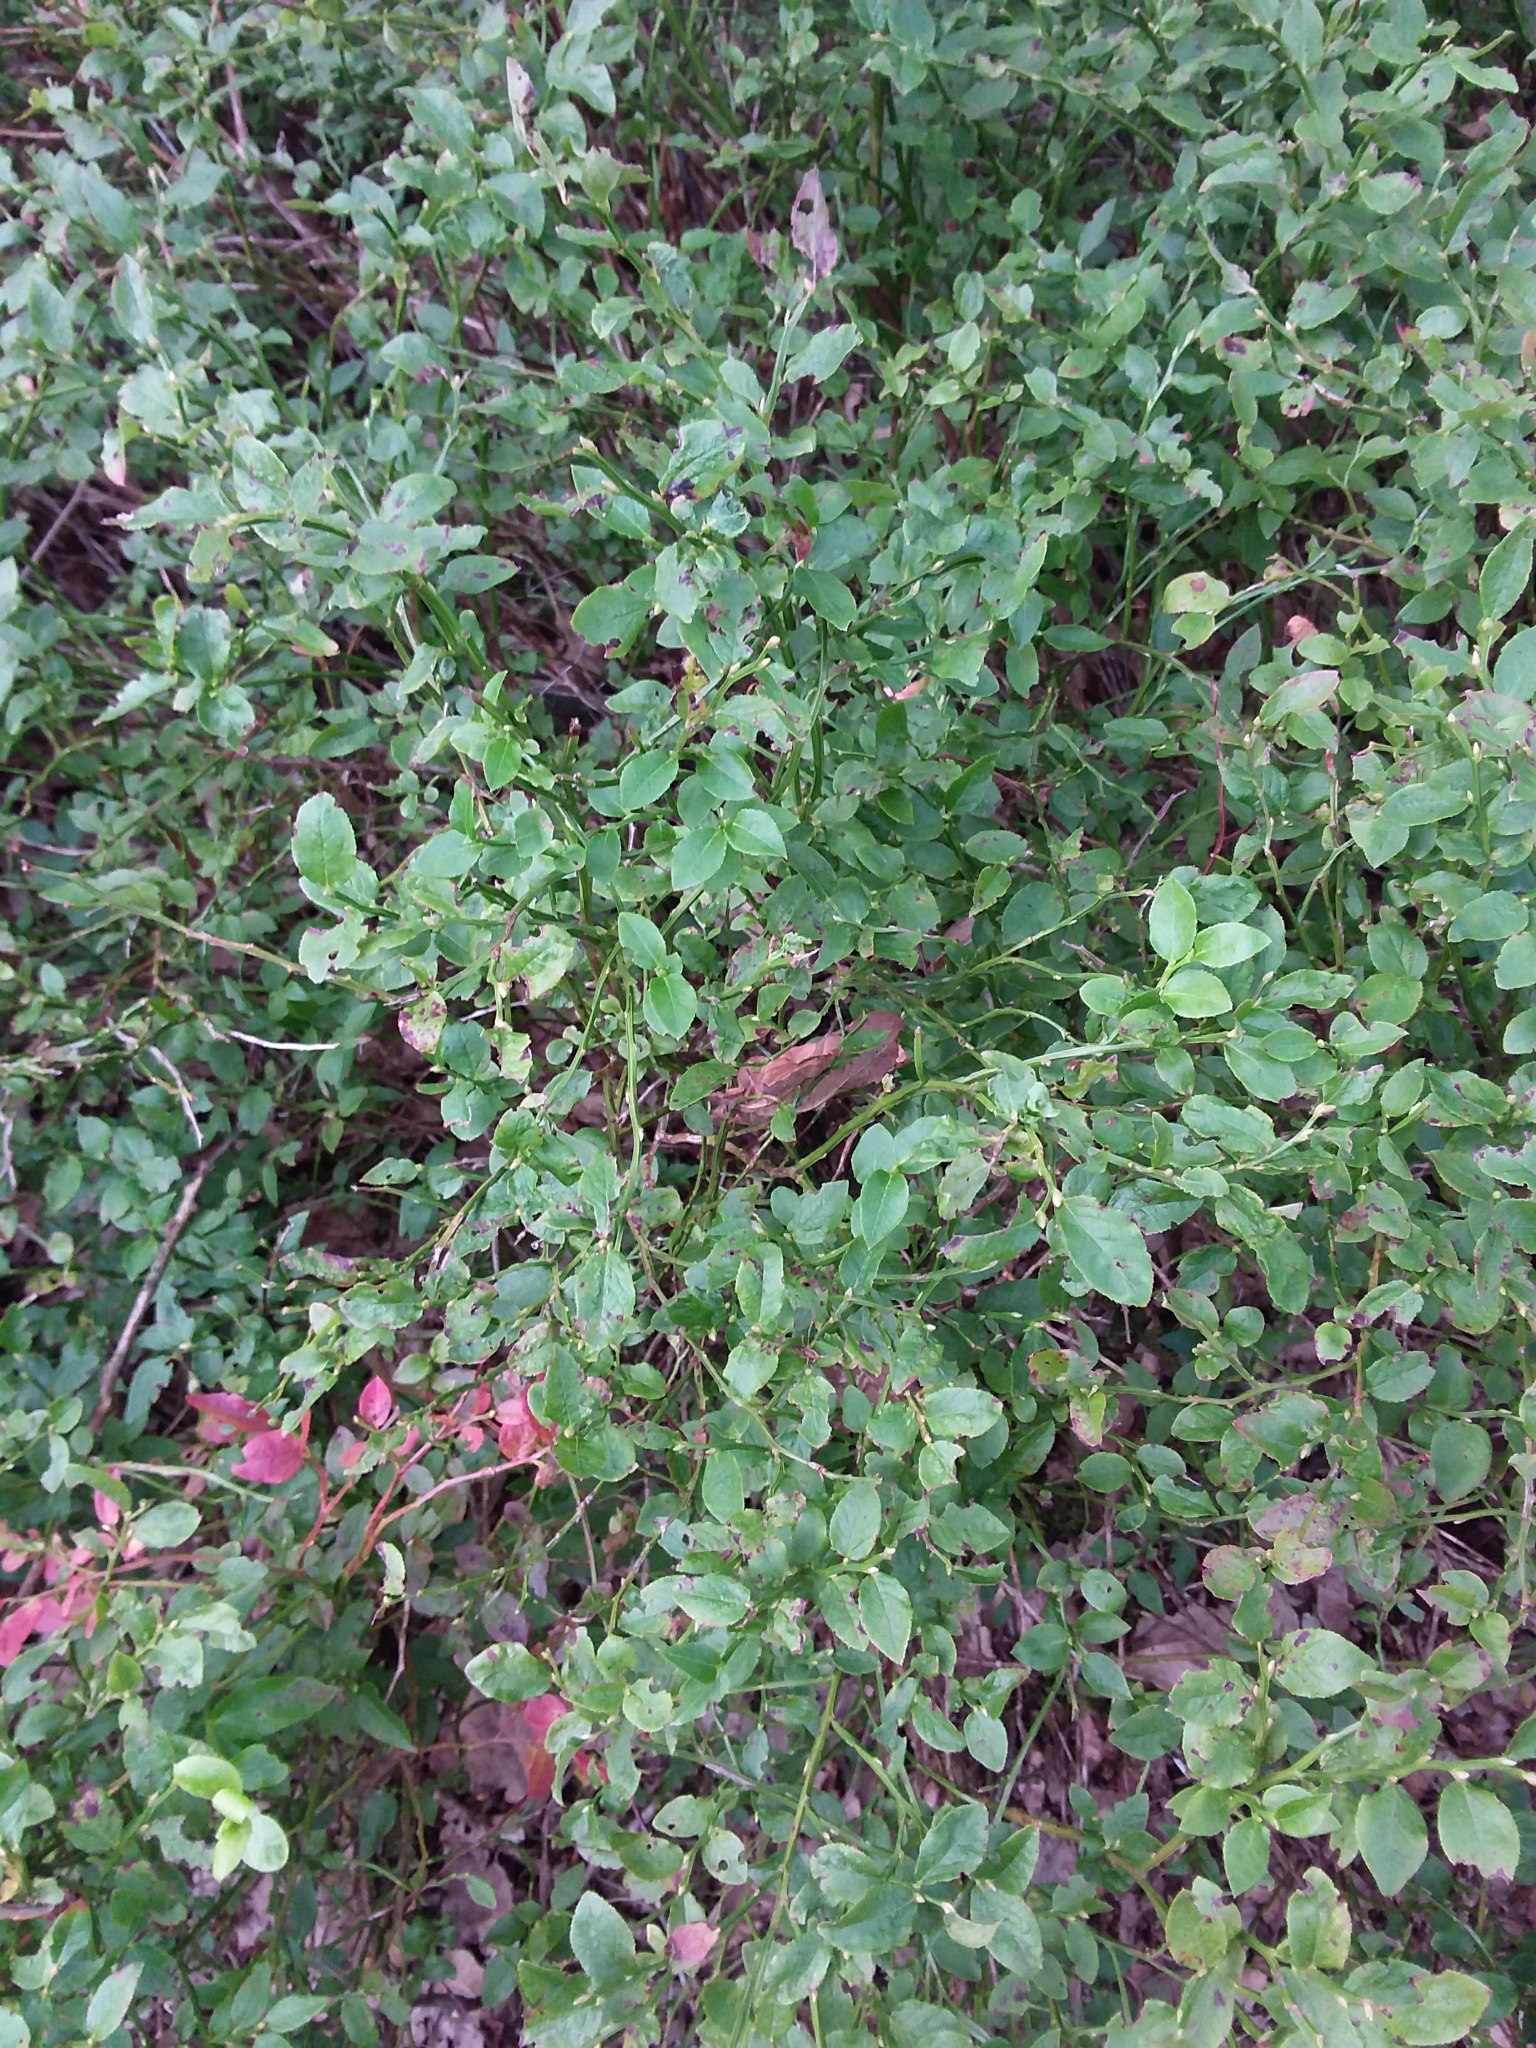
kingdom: Plantae
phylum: Tracheophyta
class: Magnoliopsida
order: Ericales
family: Ericaceae
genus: Vaccinium
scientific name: Vaccinium myrtillus
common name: Bilberry
